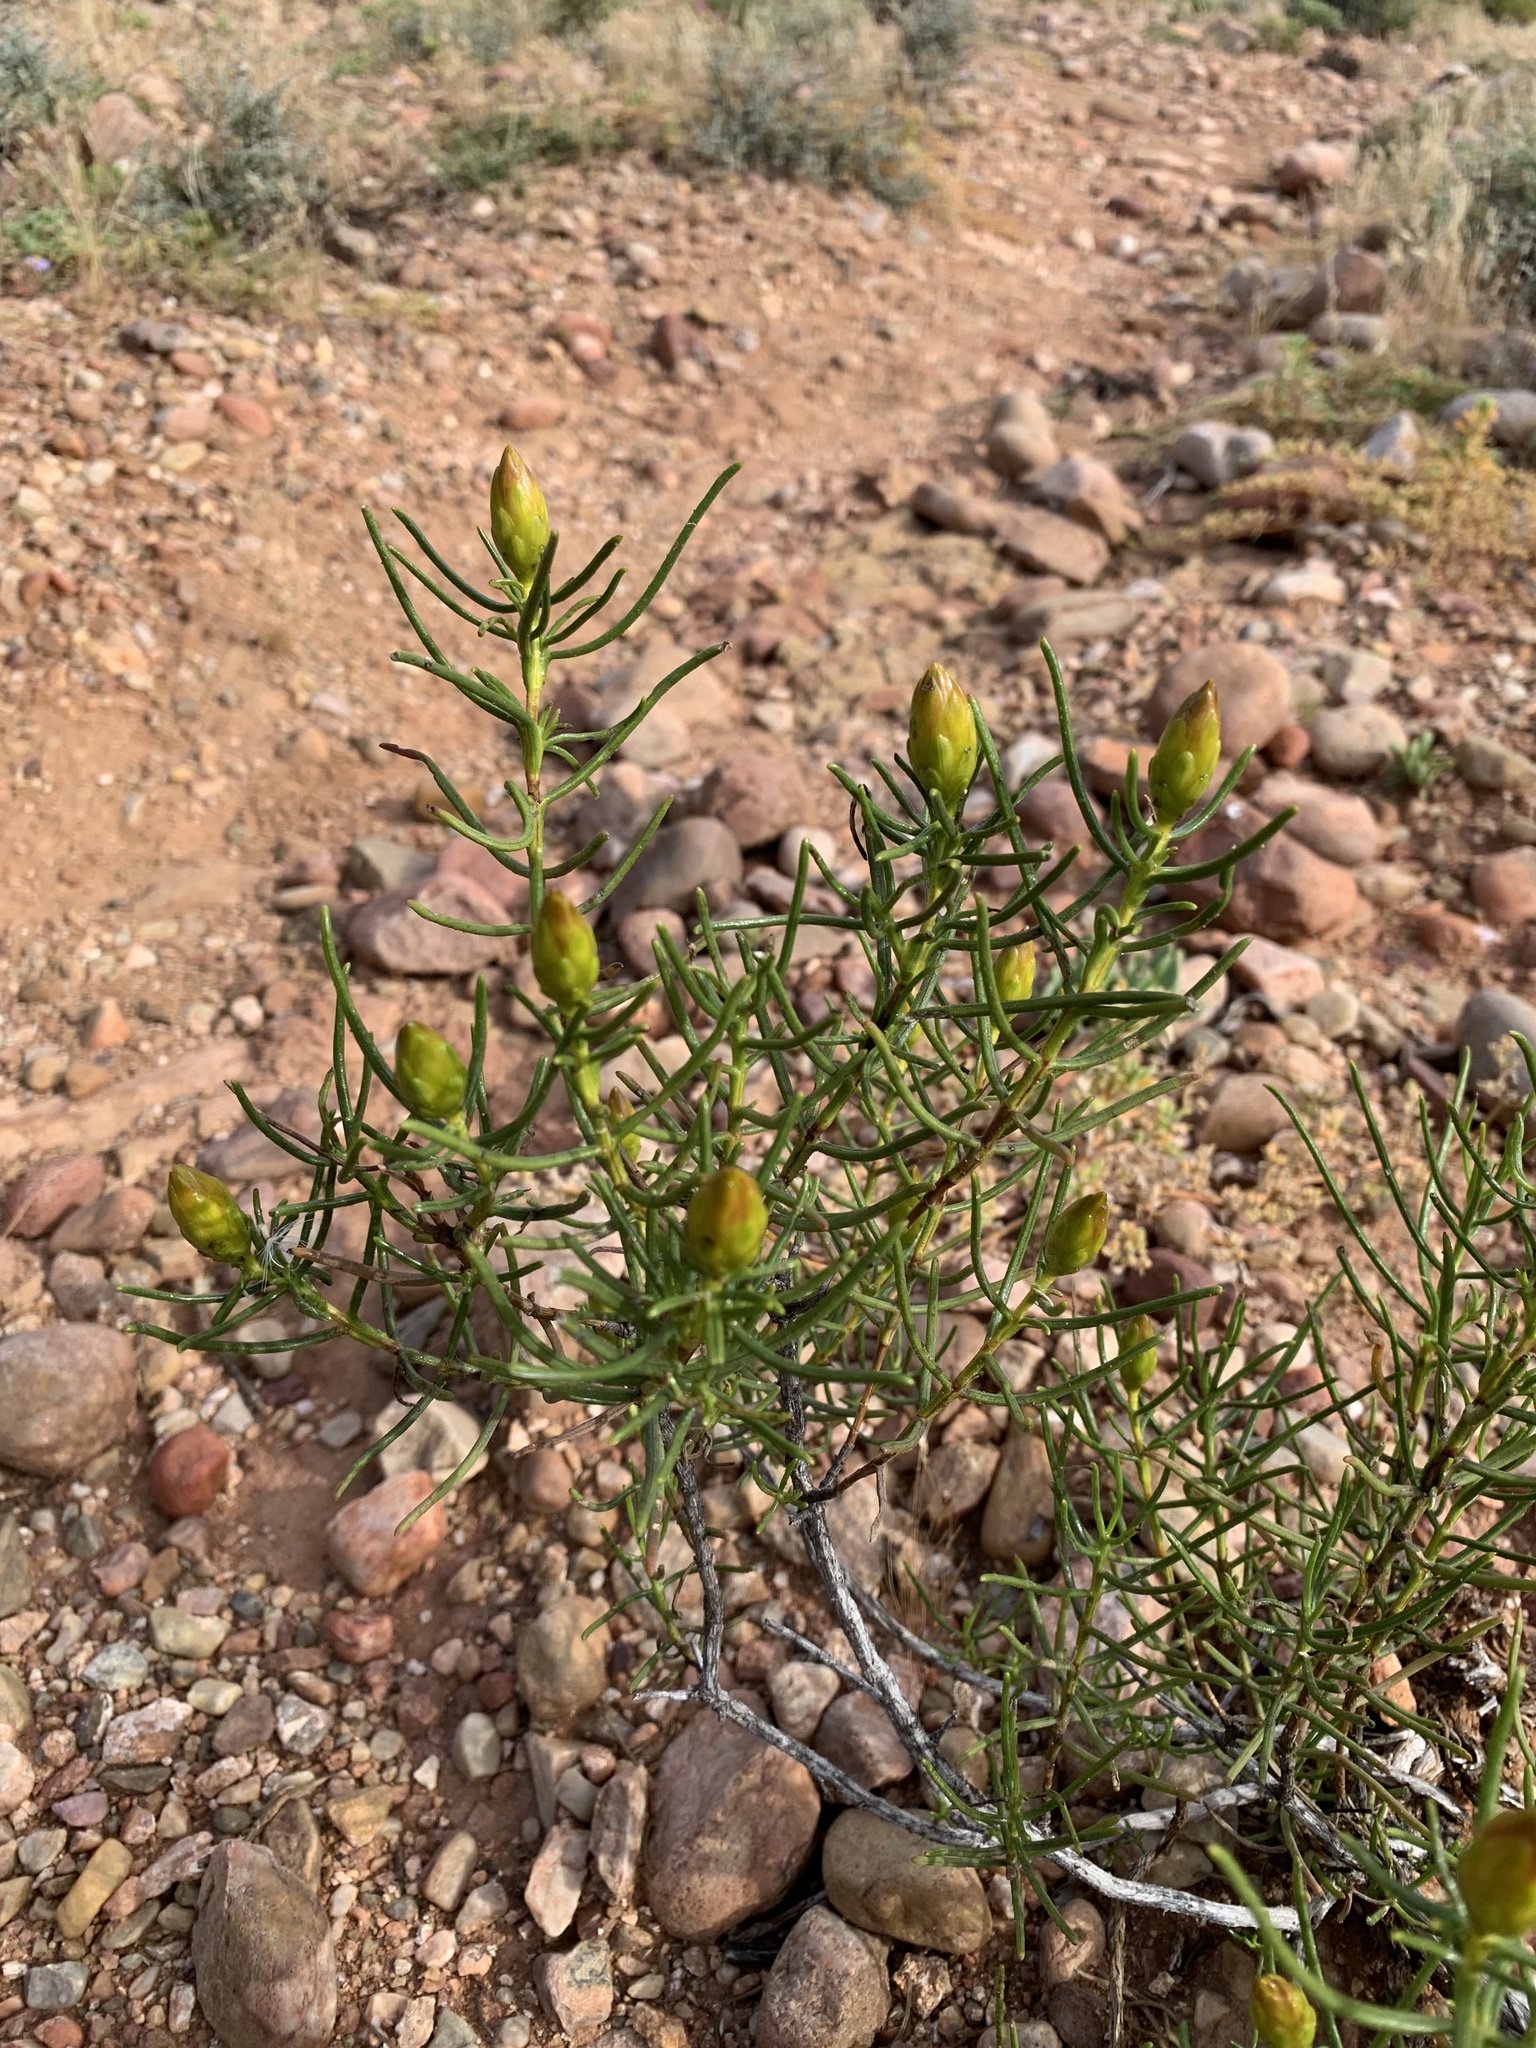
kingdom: Plantae
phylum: Tracheophyta
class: Magnoliopsida
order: Asterales
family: Asteraceae
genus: Pteronia
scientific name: Pteronia flexicaulis
